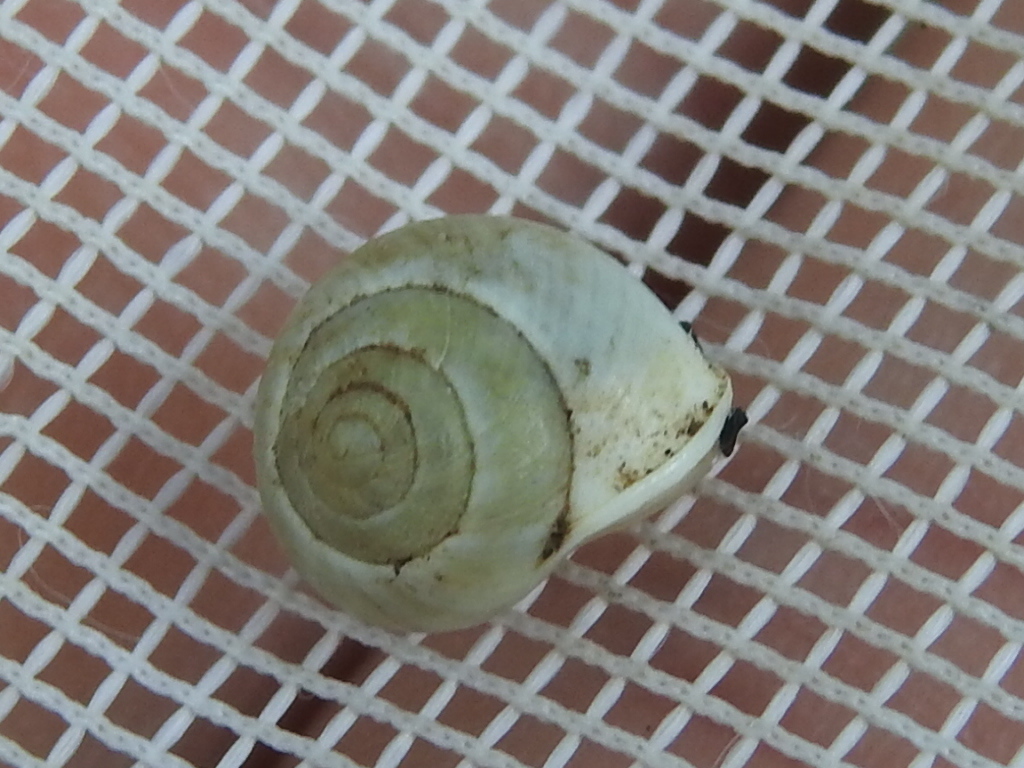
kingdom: Animalia
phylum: Mollusca
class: Gastropoda
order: Cycloneritida
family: Helicinidae
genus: Helicina
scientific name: Helicina orbiculata
